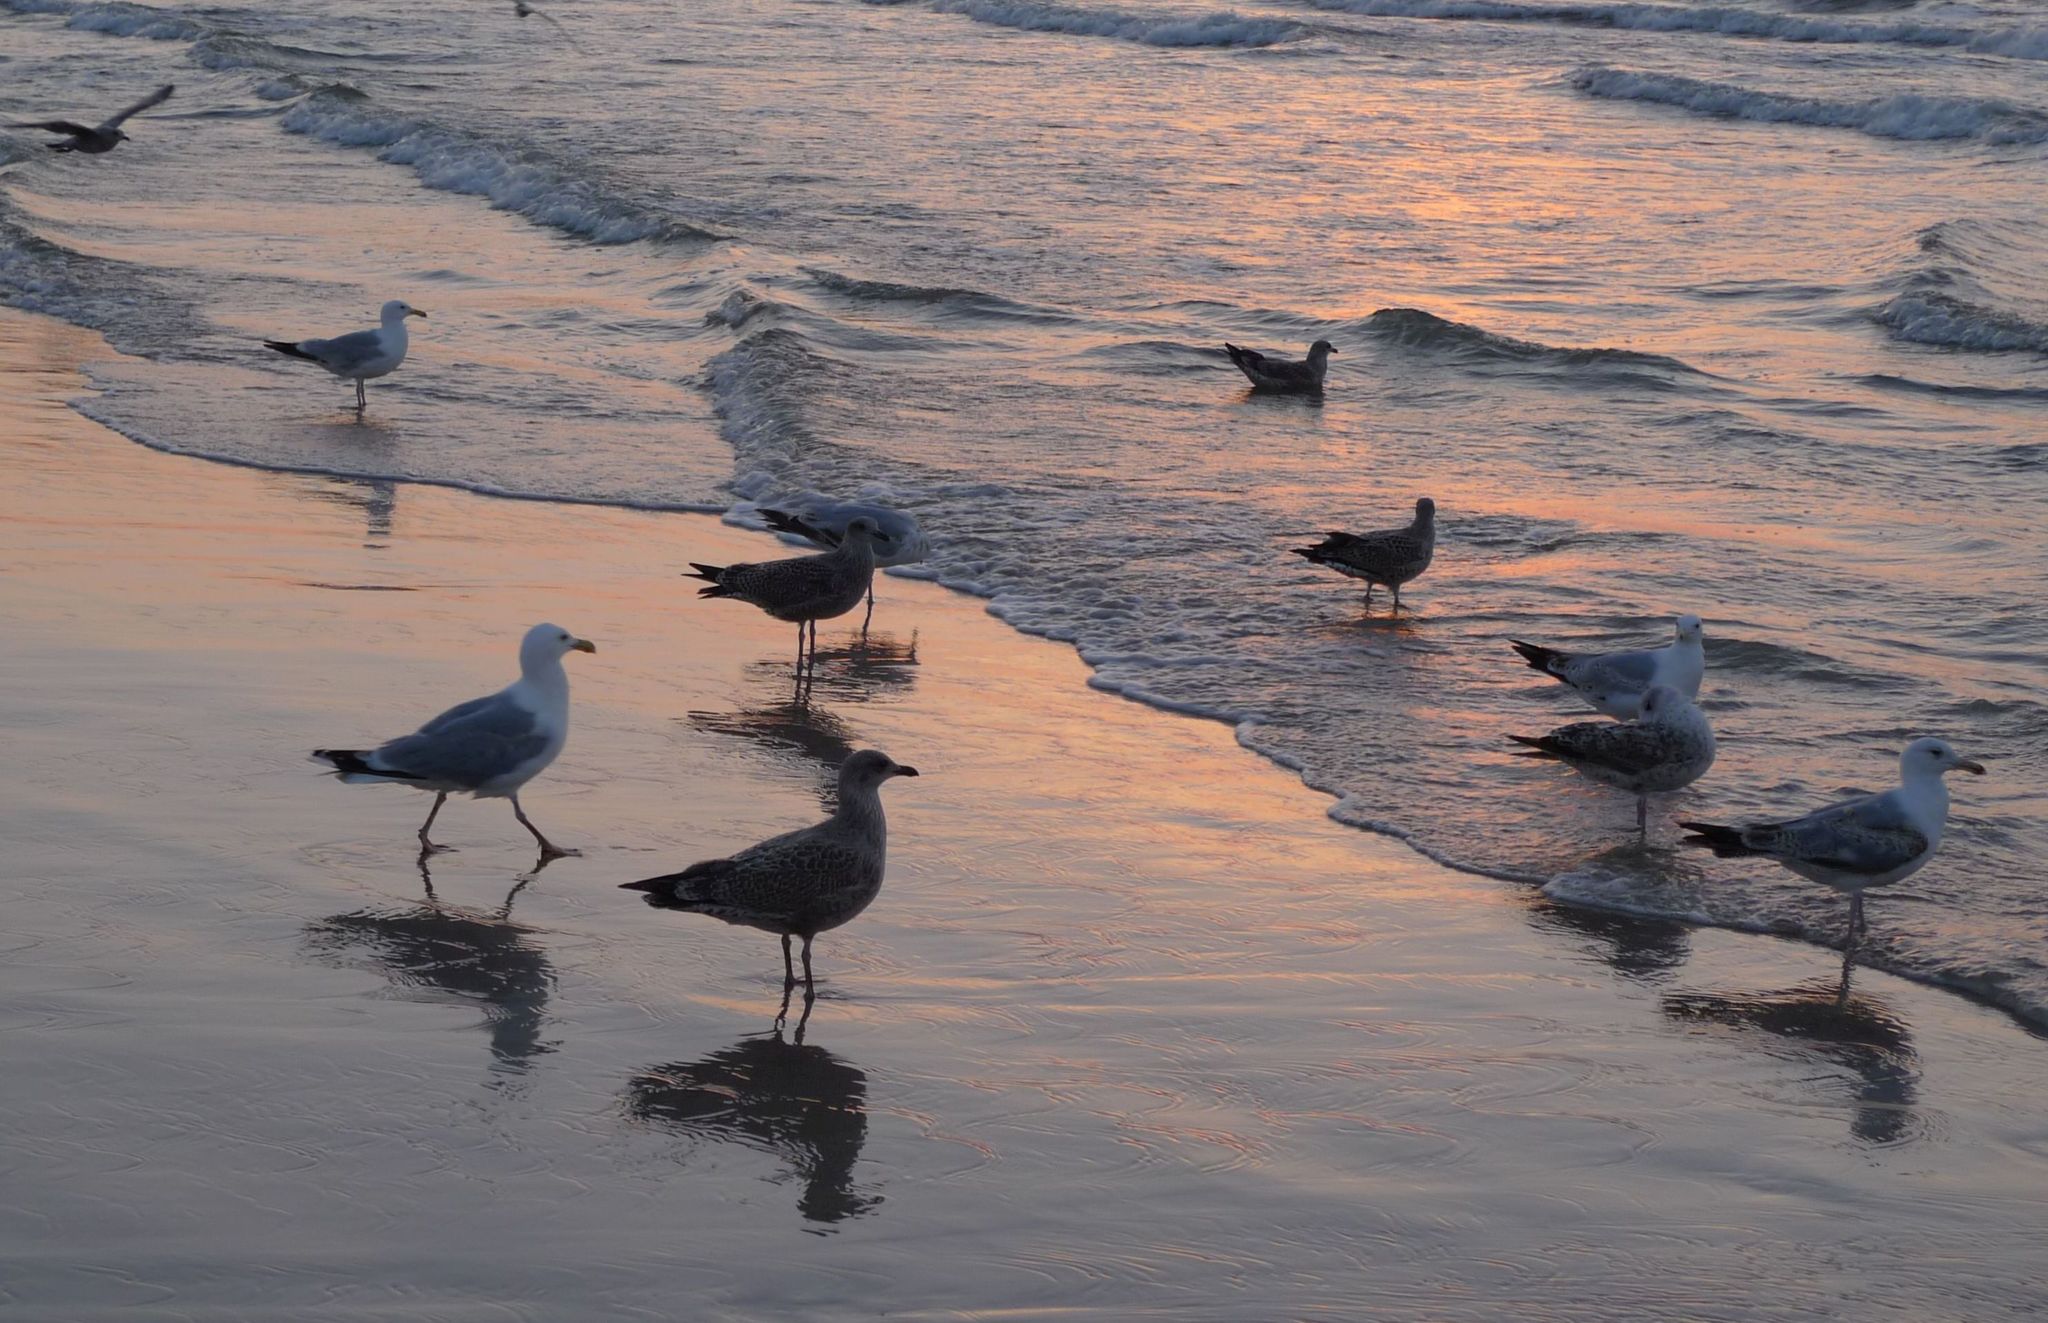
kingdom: Animalia
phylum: Chordata
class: Aves
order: Charadriiformes
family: Laridae
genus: Larus
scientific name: Larus argentatus
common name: Herring gull
